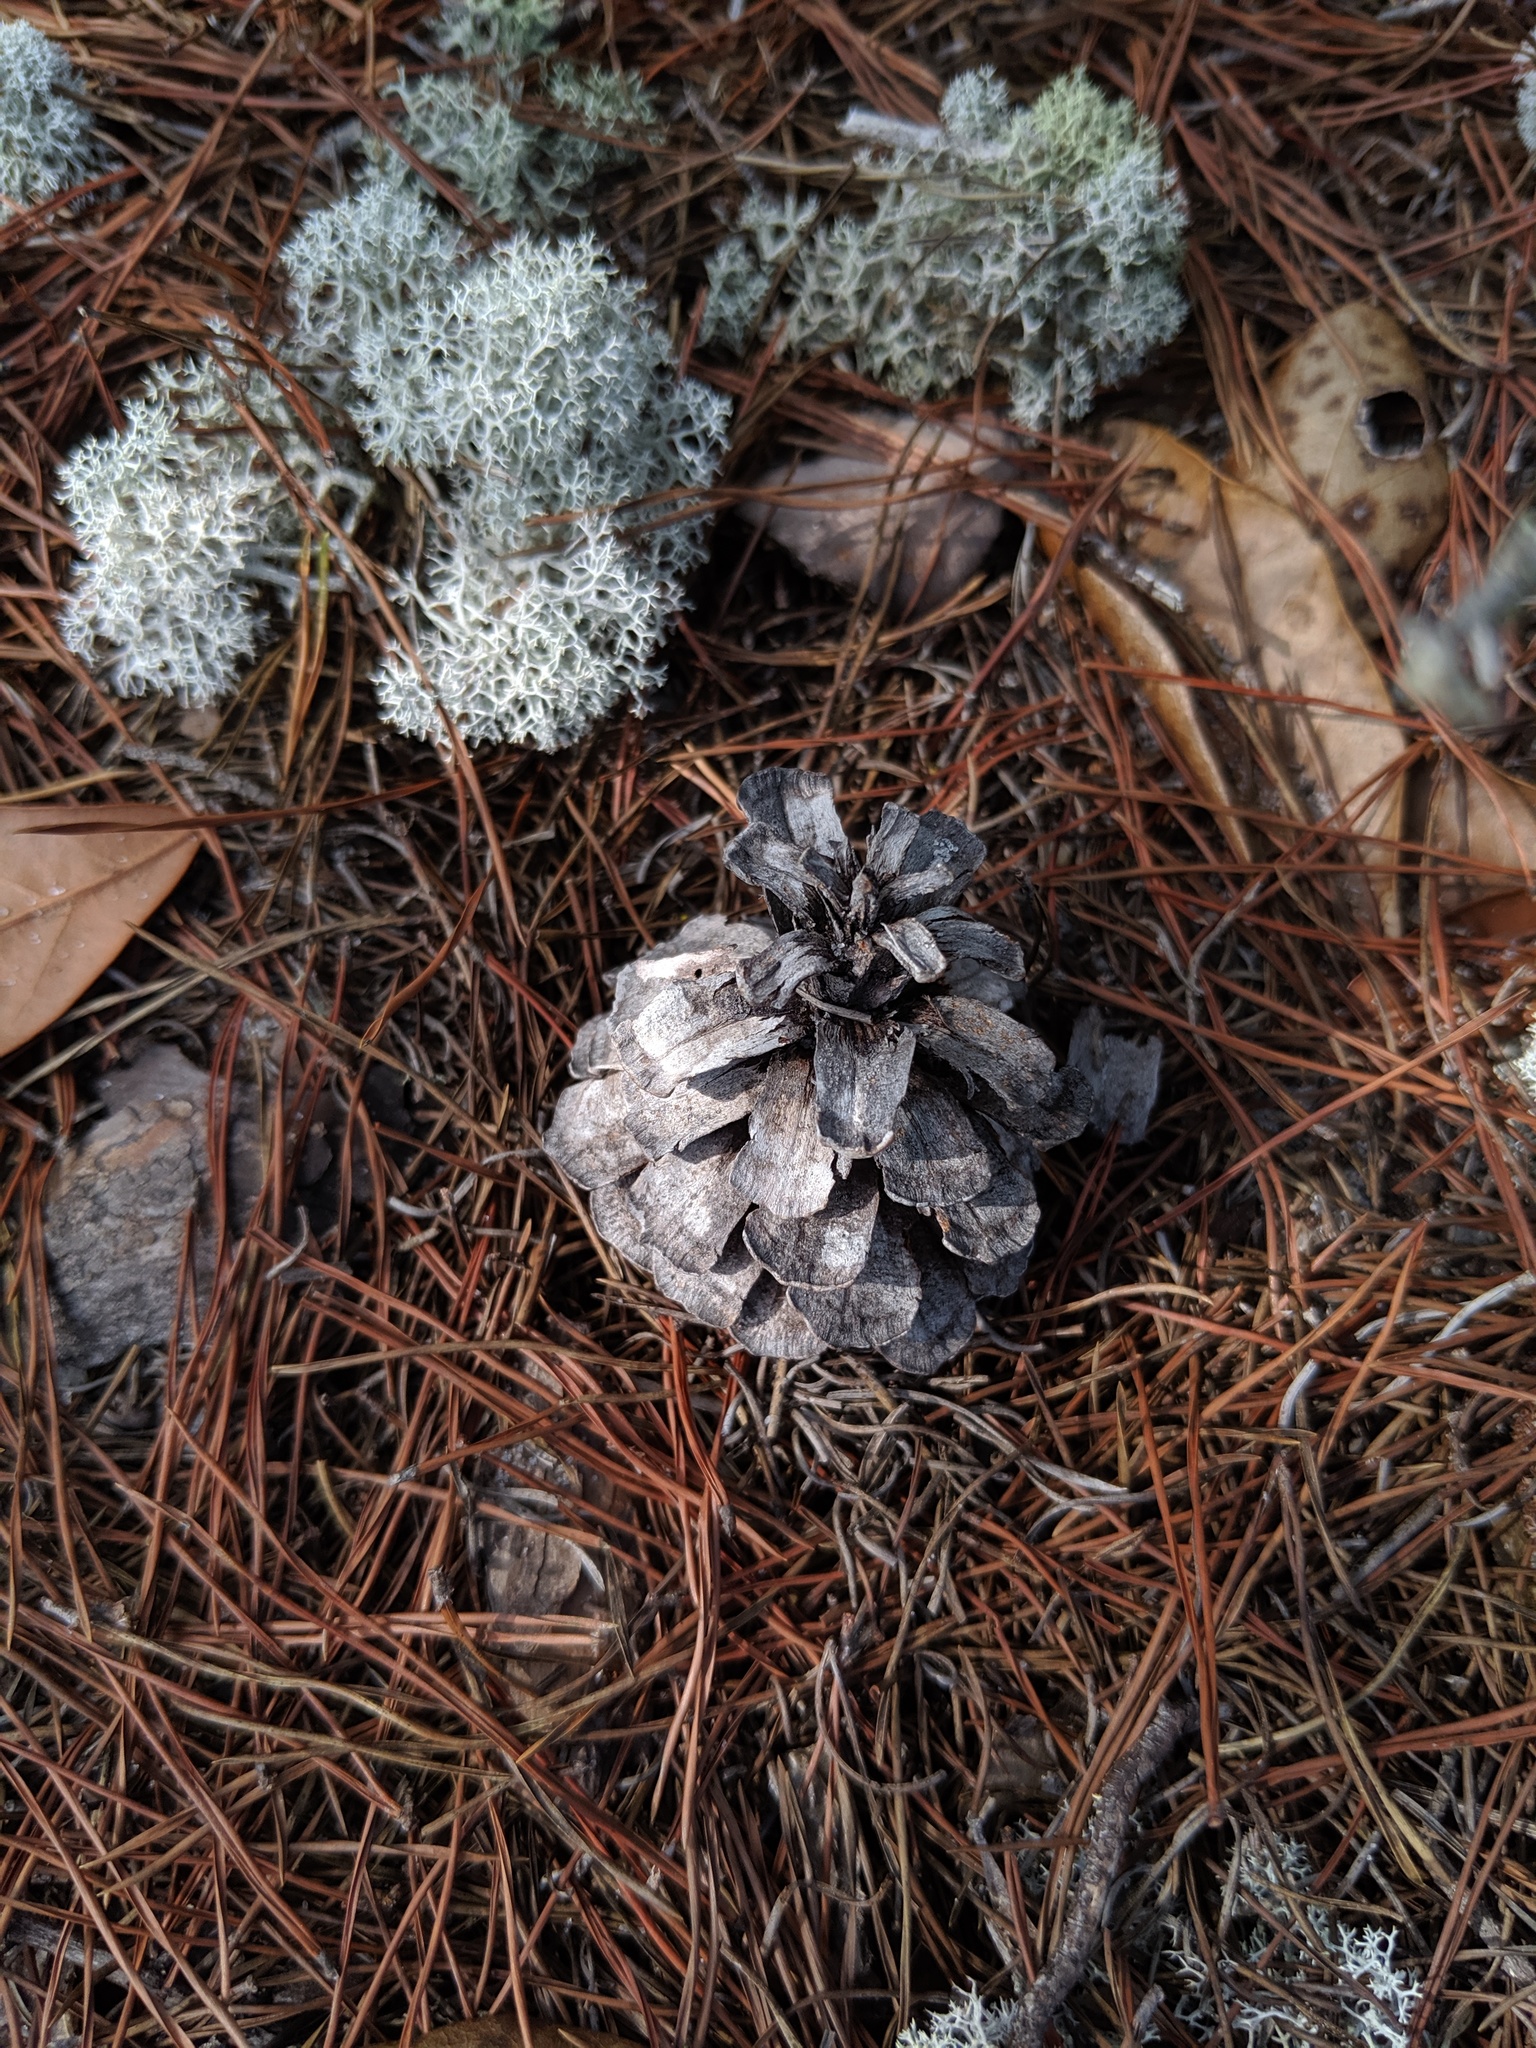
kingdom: Plantae
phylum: Tracheophyta
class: Pinopsida
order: Pinales
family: Pinaceae
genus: Pinus
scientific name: Pinus clausa
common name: Sand pine
